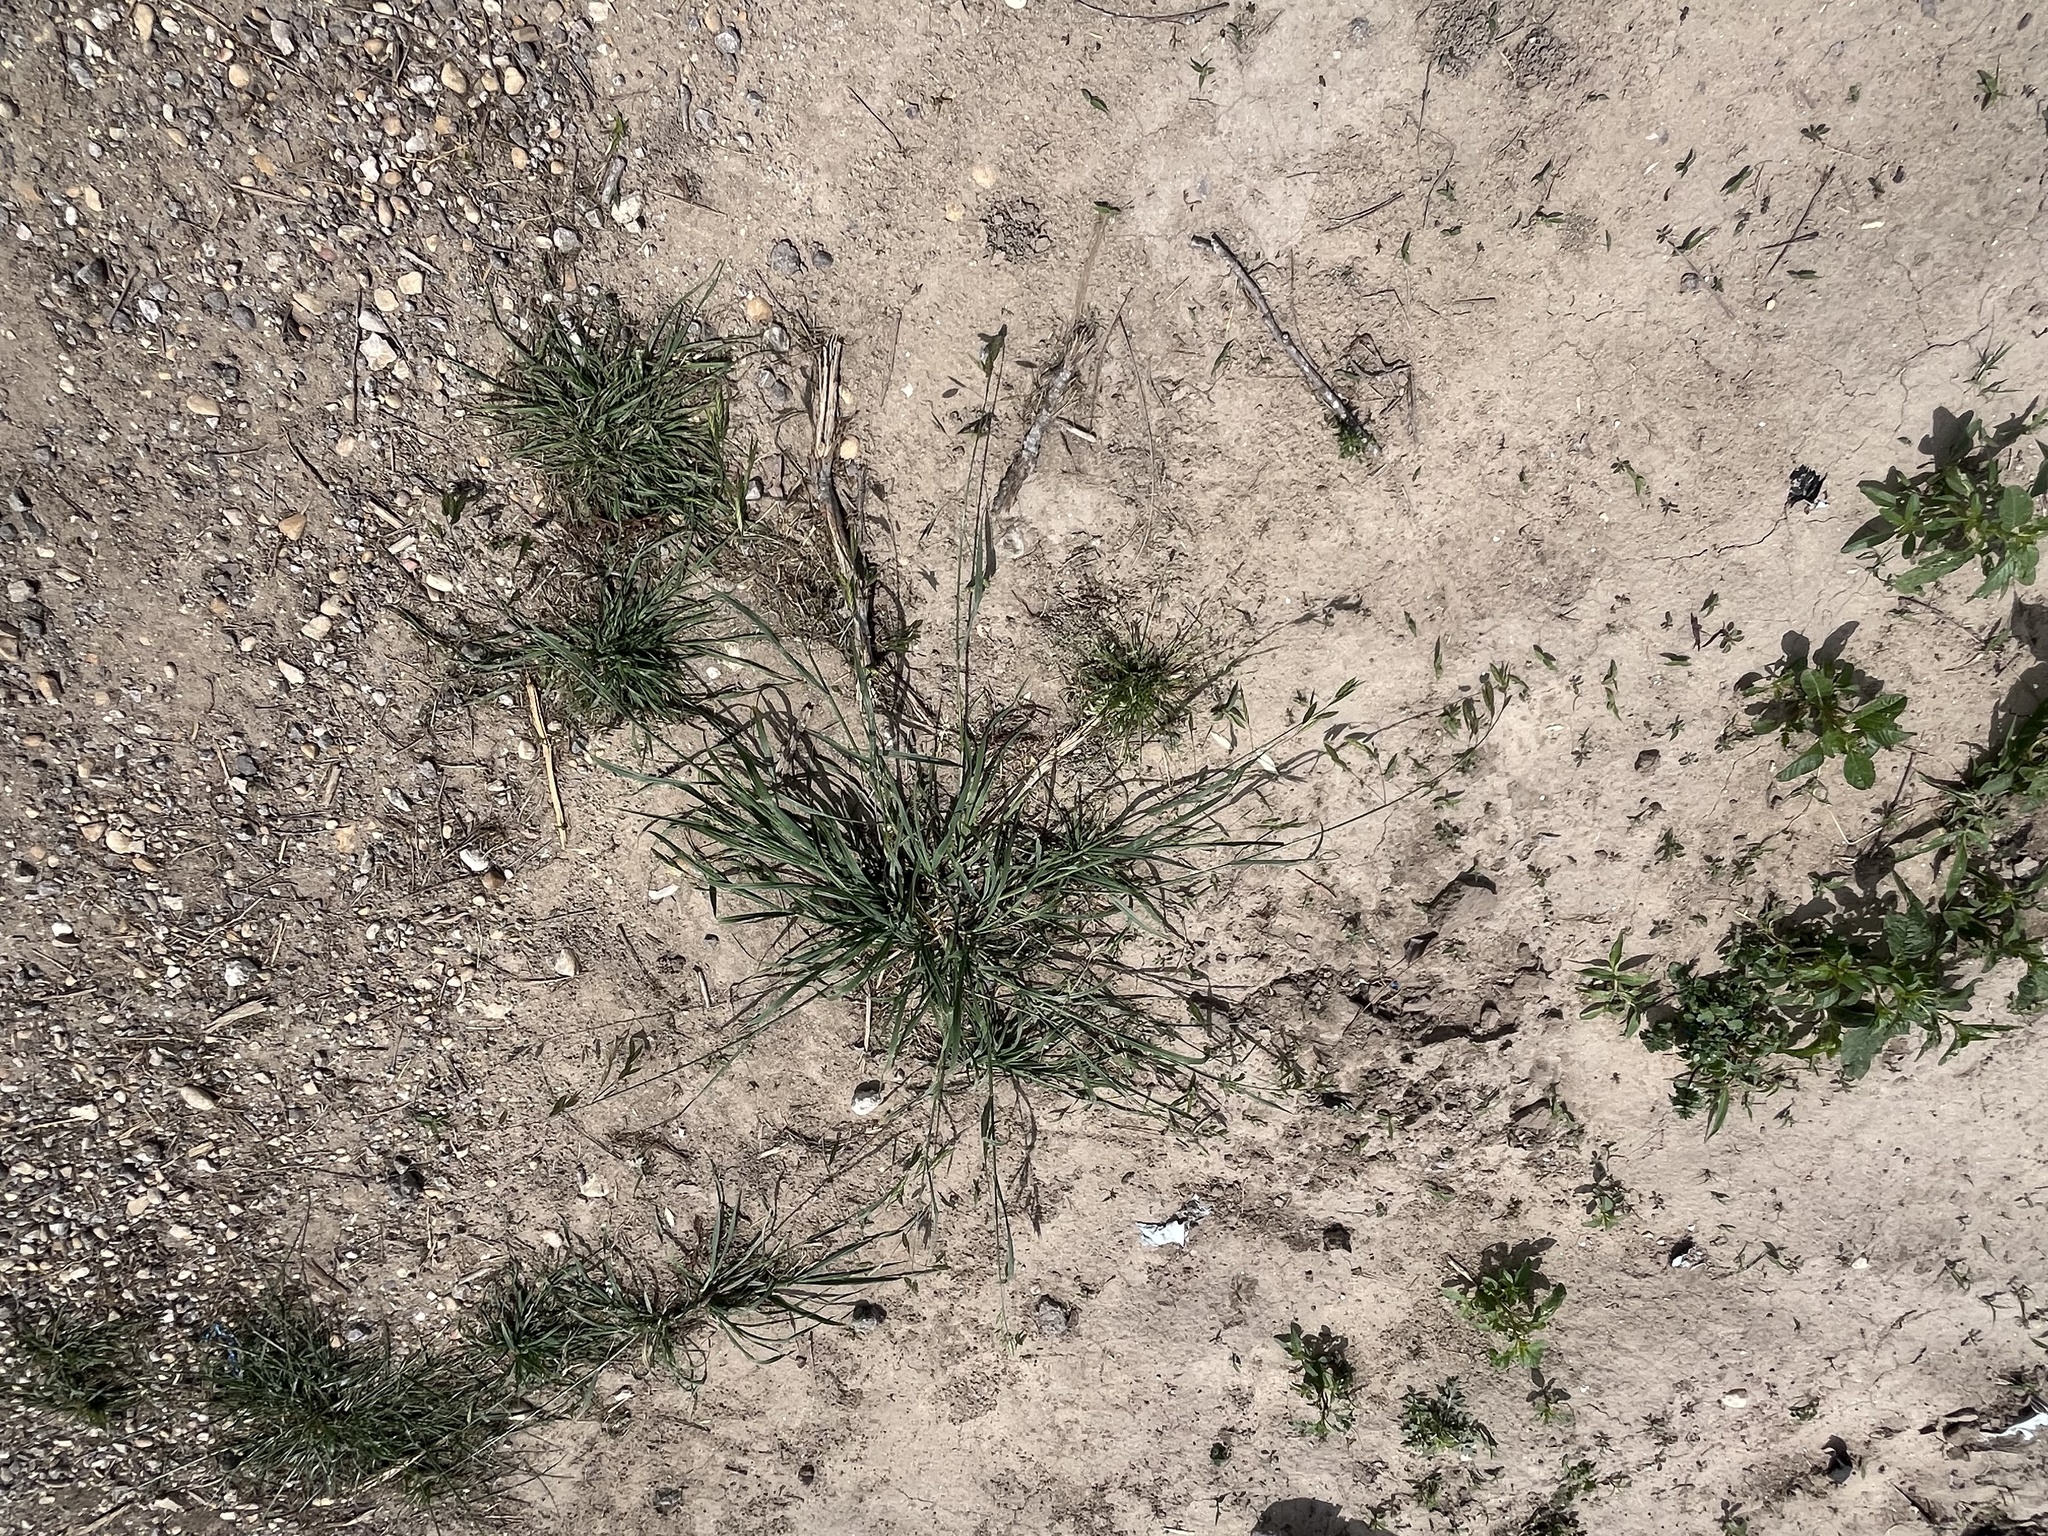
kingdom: Plantae
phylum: Tracheophyta
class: Liliopsida
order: Poales
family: Poaceae
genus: Bromus
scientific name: Bromus catharticus
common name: Rescuegrass
